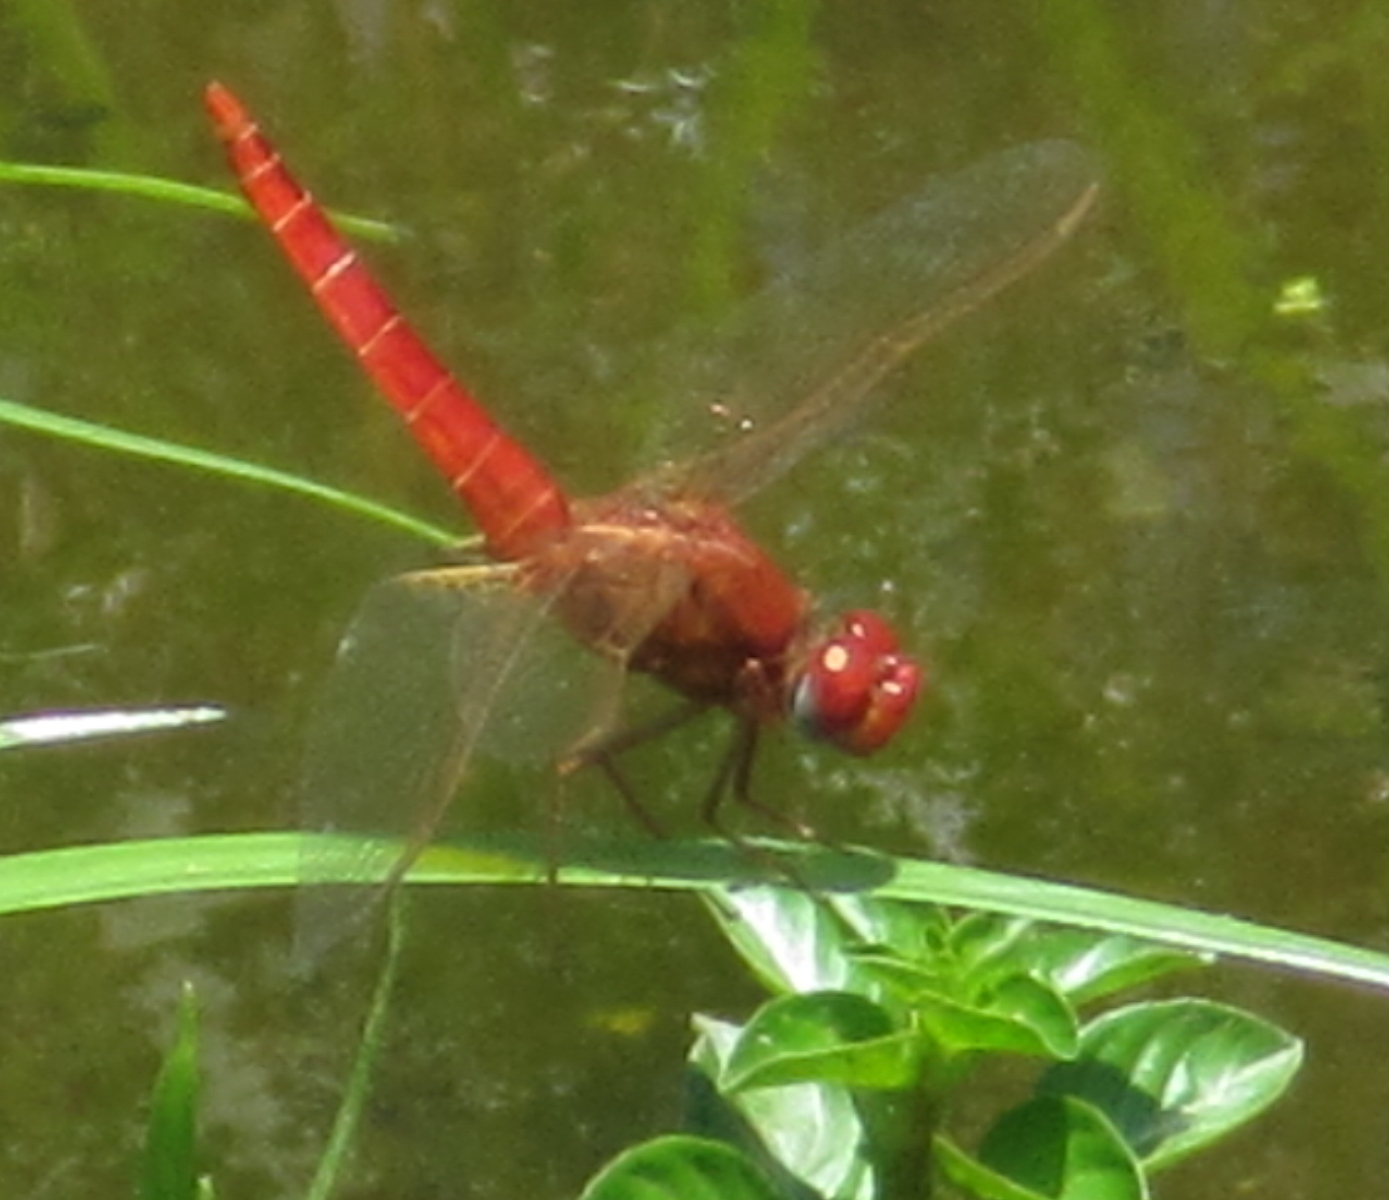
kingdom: Animalia
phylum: Arthropoda
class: Insecta
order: Odonata
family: Libellulidae
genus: Crocothemis
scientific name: Crocothemis erythraea
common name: Scarlet dragonfly
